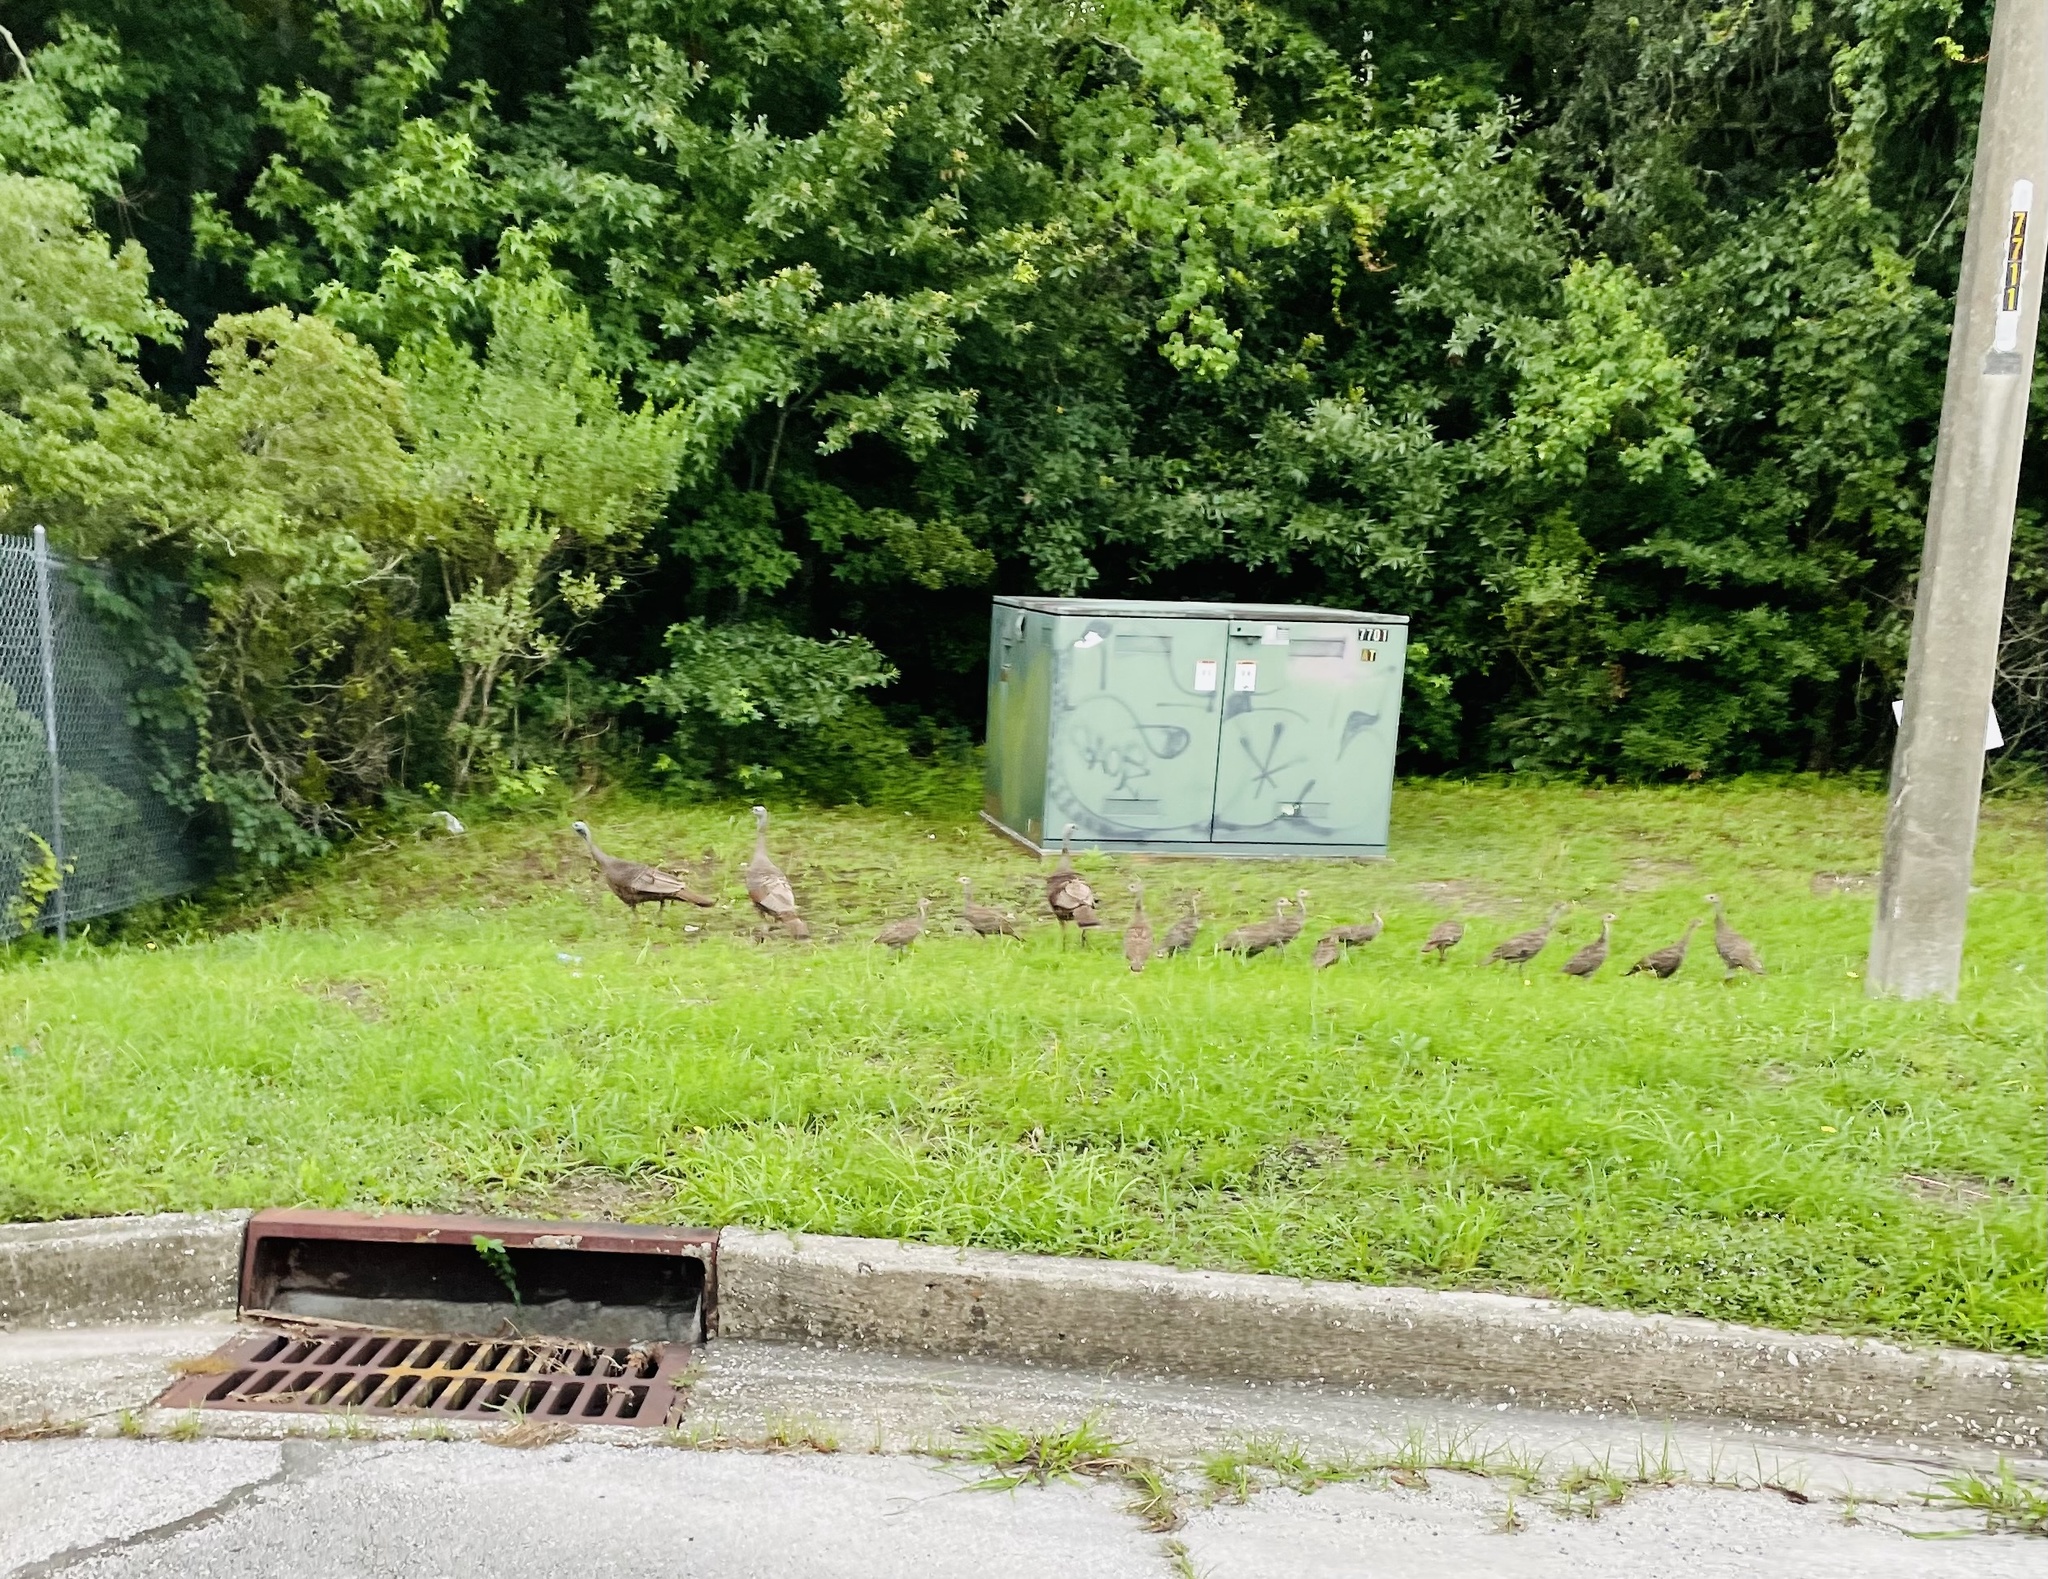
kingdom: Animalia
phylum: Chordata
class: Aves
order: Galliformes
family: Phasianidae
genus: Meleagris
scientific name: Meleagris gallopavo
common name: Wild turkey
